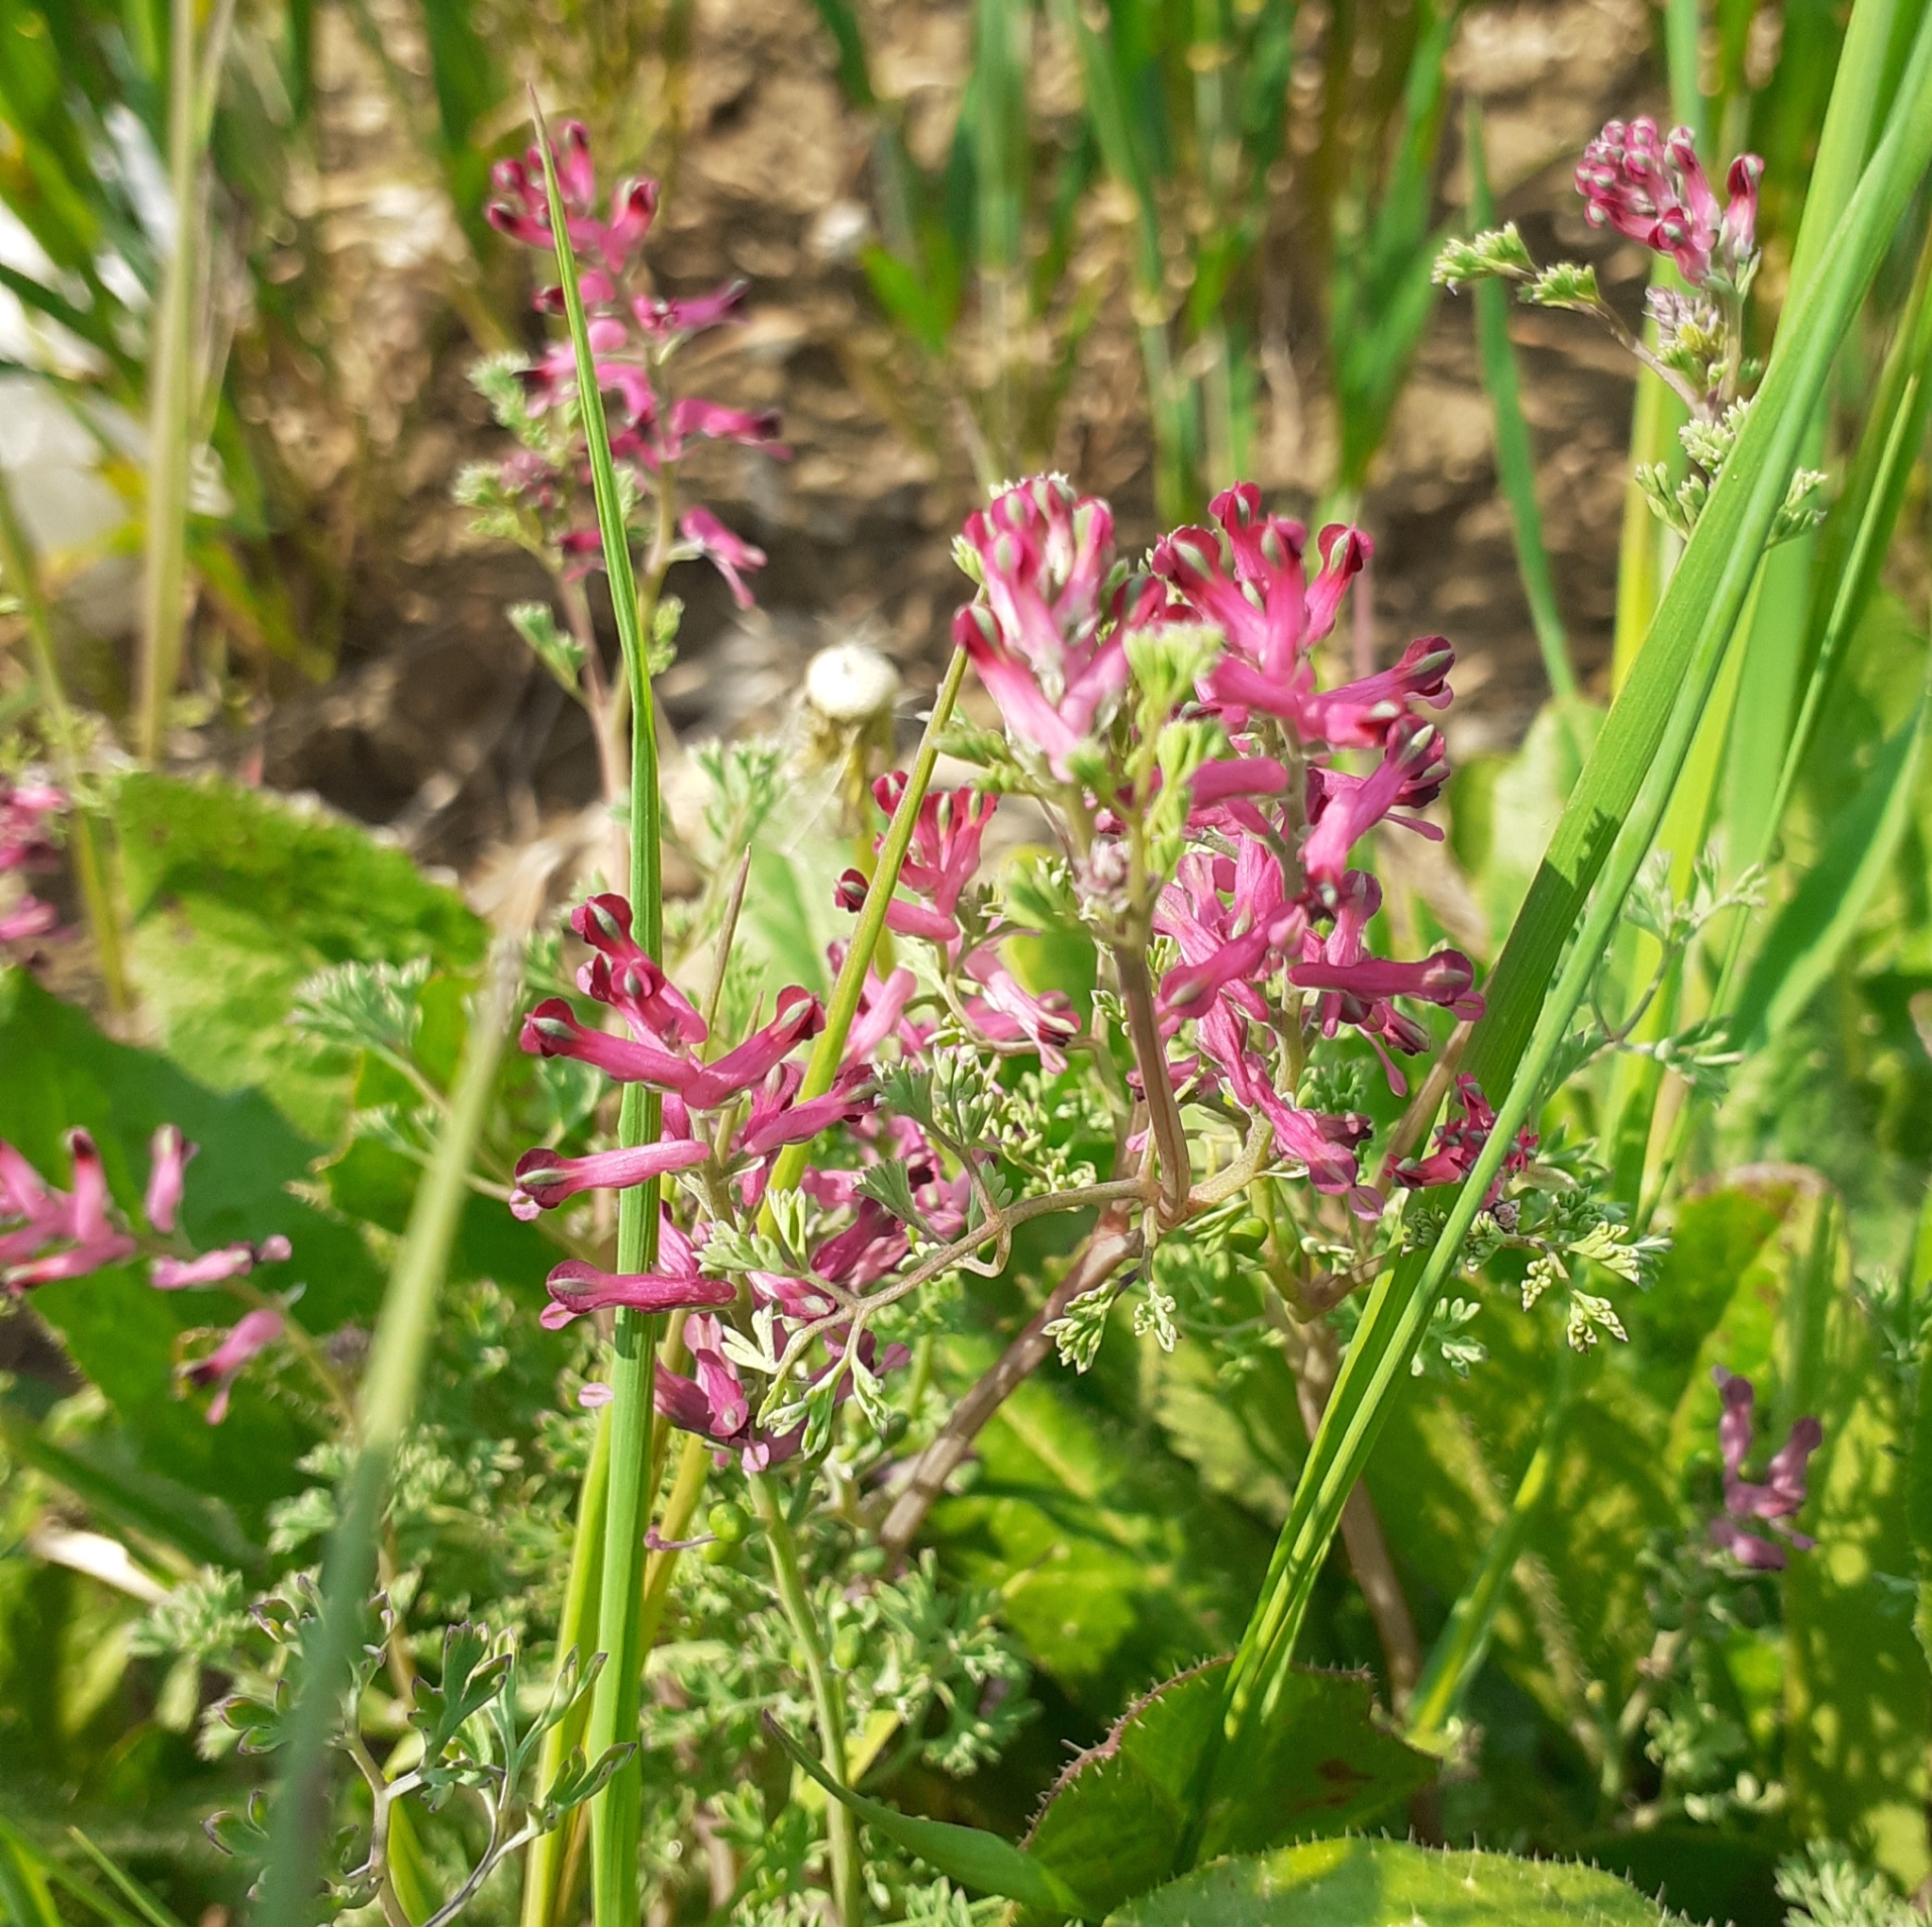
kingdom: Plantae
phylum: Tracheophyta
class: Magnoliopsida
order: Ranunculales
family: Papaveraceae
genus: Fumaria
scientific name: Fumaria officinalis
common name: Common fumitory
